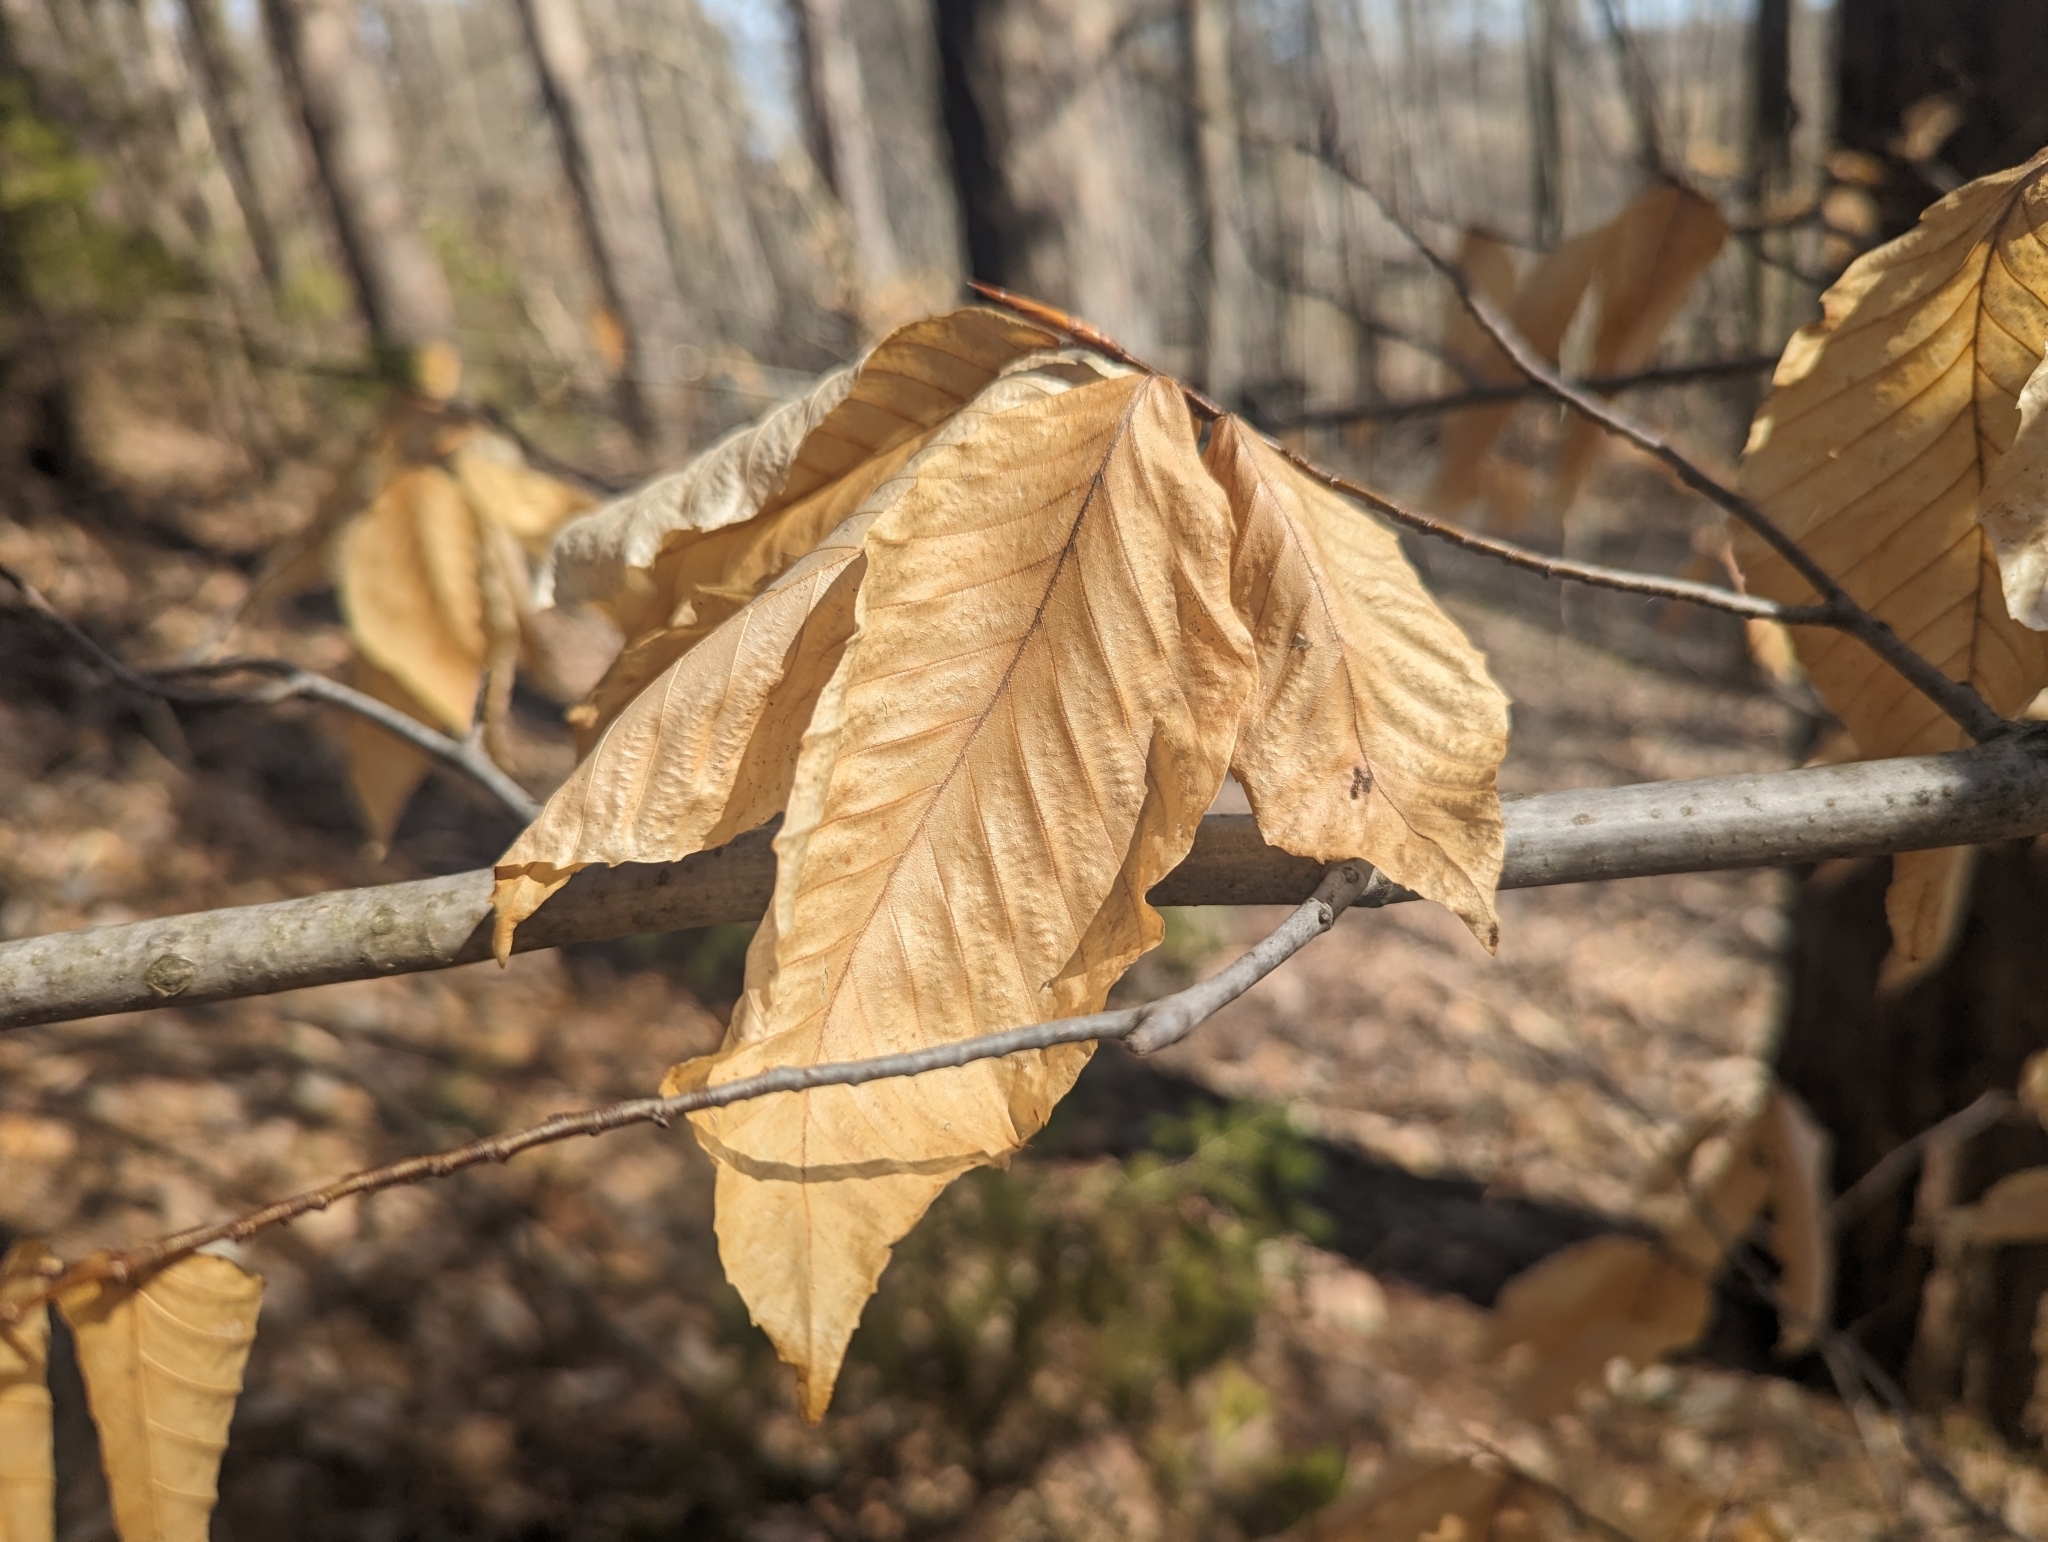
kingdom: Plantae
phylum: Tracheophyta
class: Magnoliopsida
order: Fagales
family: Fagaceae
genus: Fagus
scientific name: Fagus grandifolia
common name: American beech
